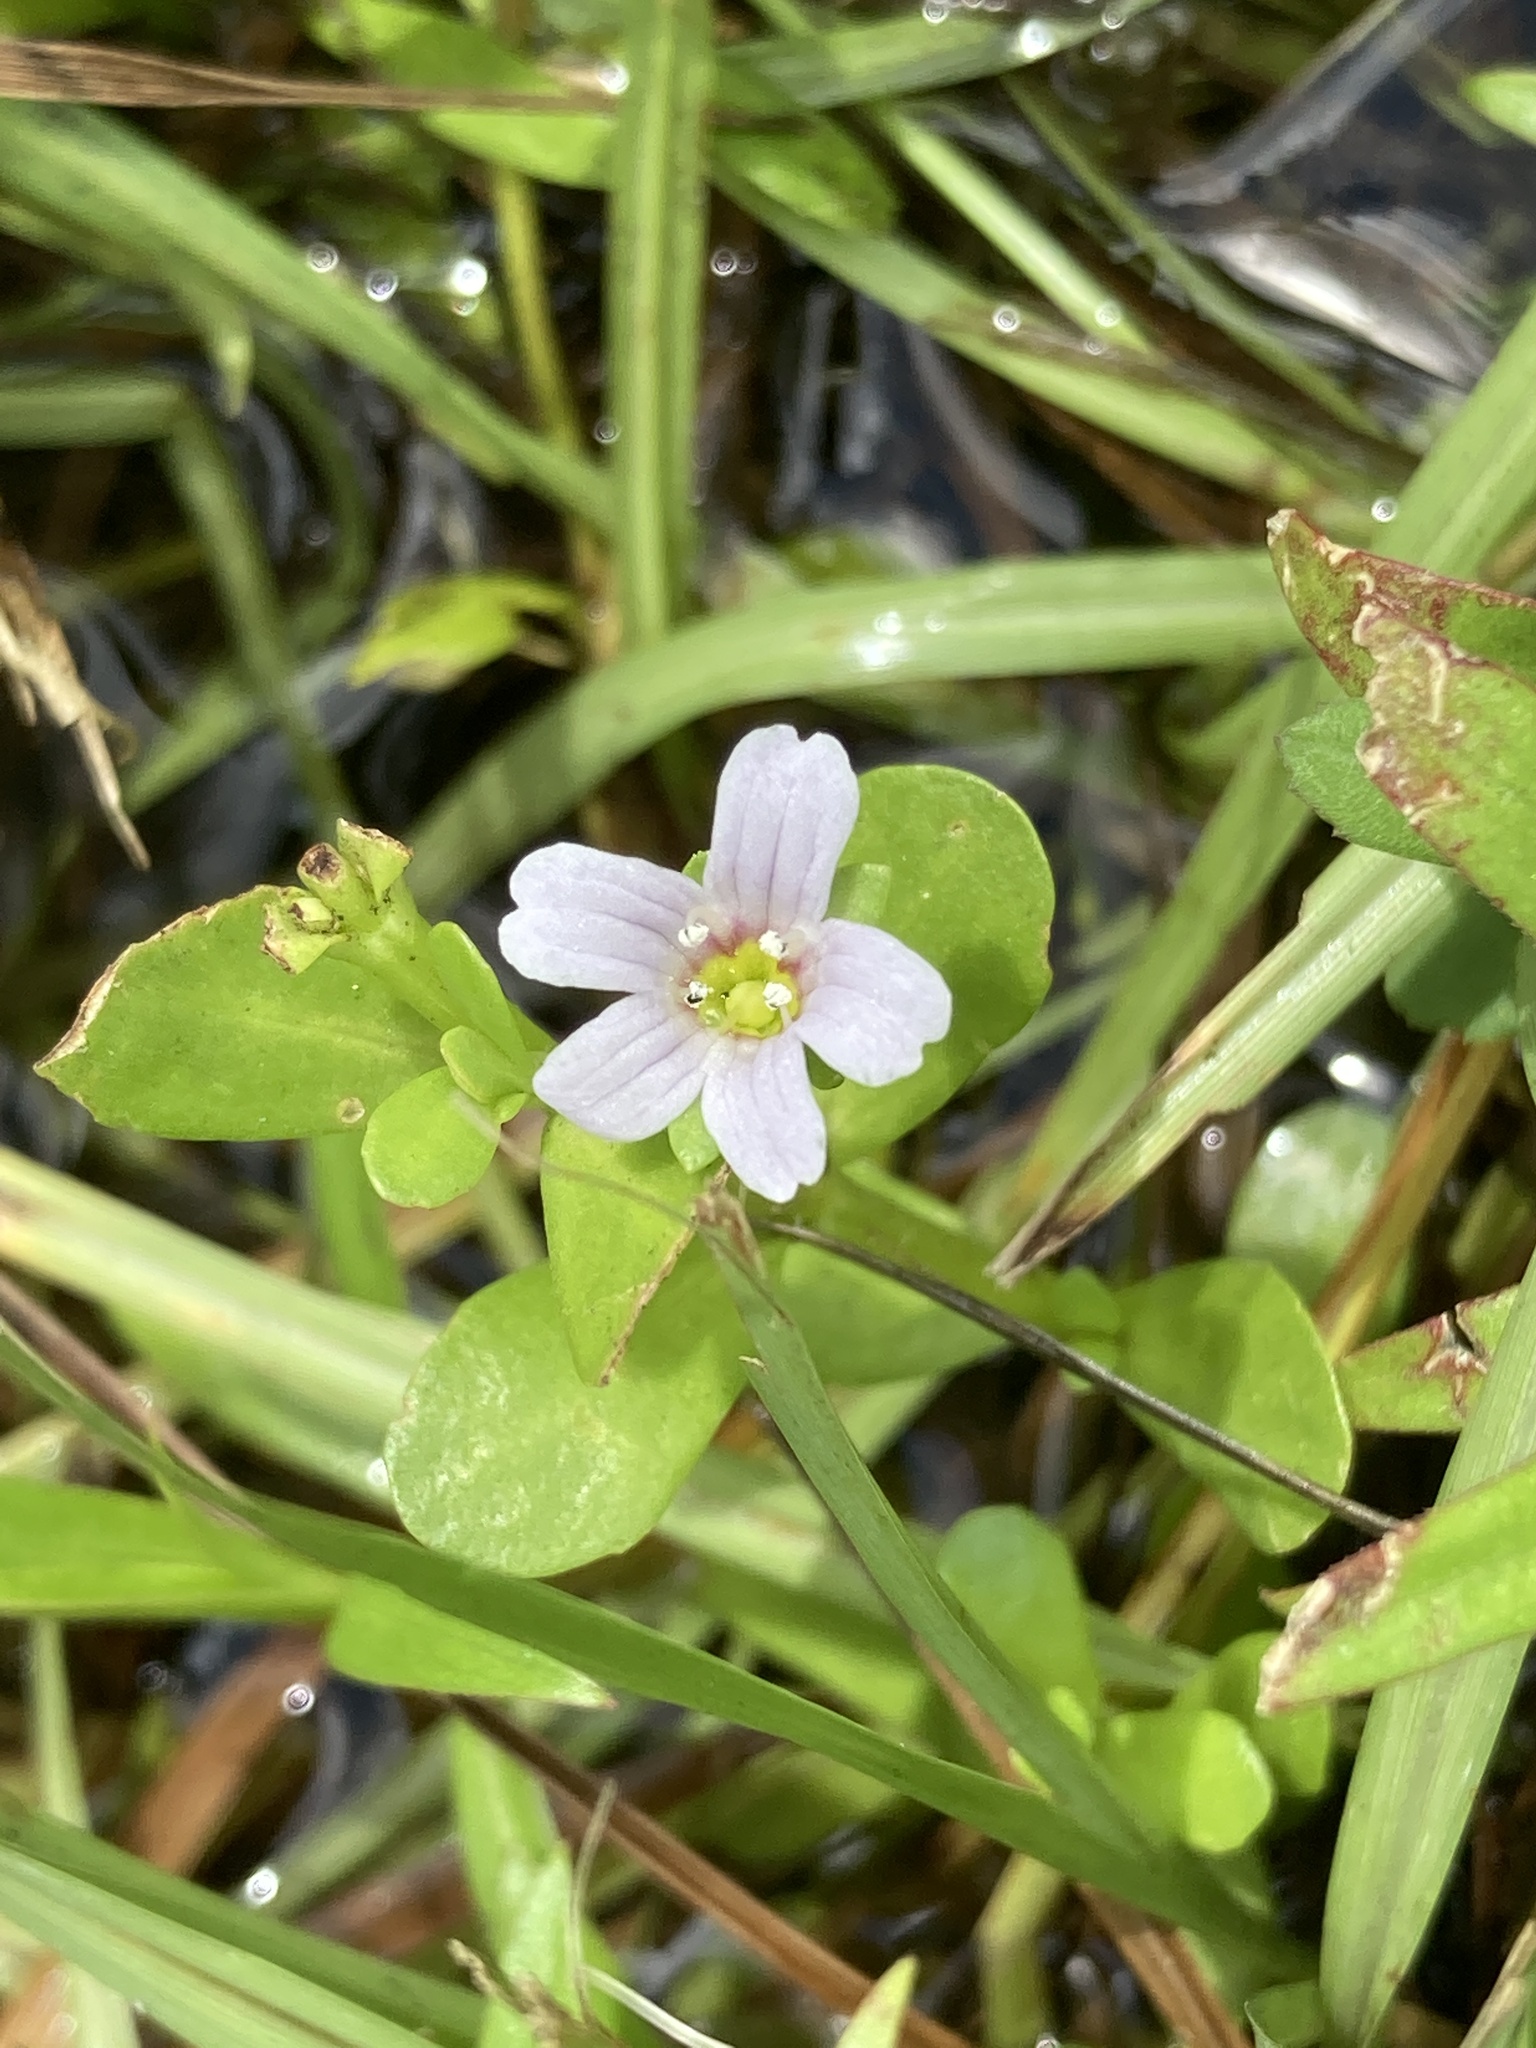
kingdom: Plantae
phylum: Tracheophyta
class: Magnoliopsida
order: Lamiales
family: Plantaginaceae
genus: Bacopa
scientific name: Bacopa monnieri
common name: Indian-pennywort
